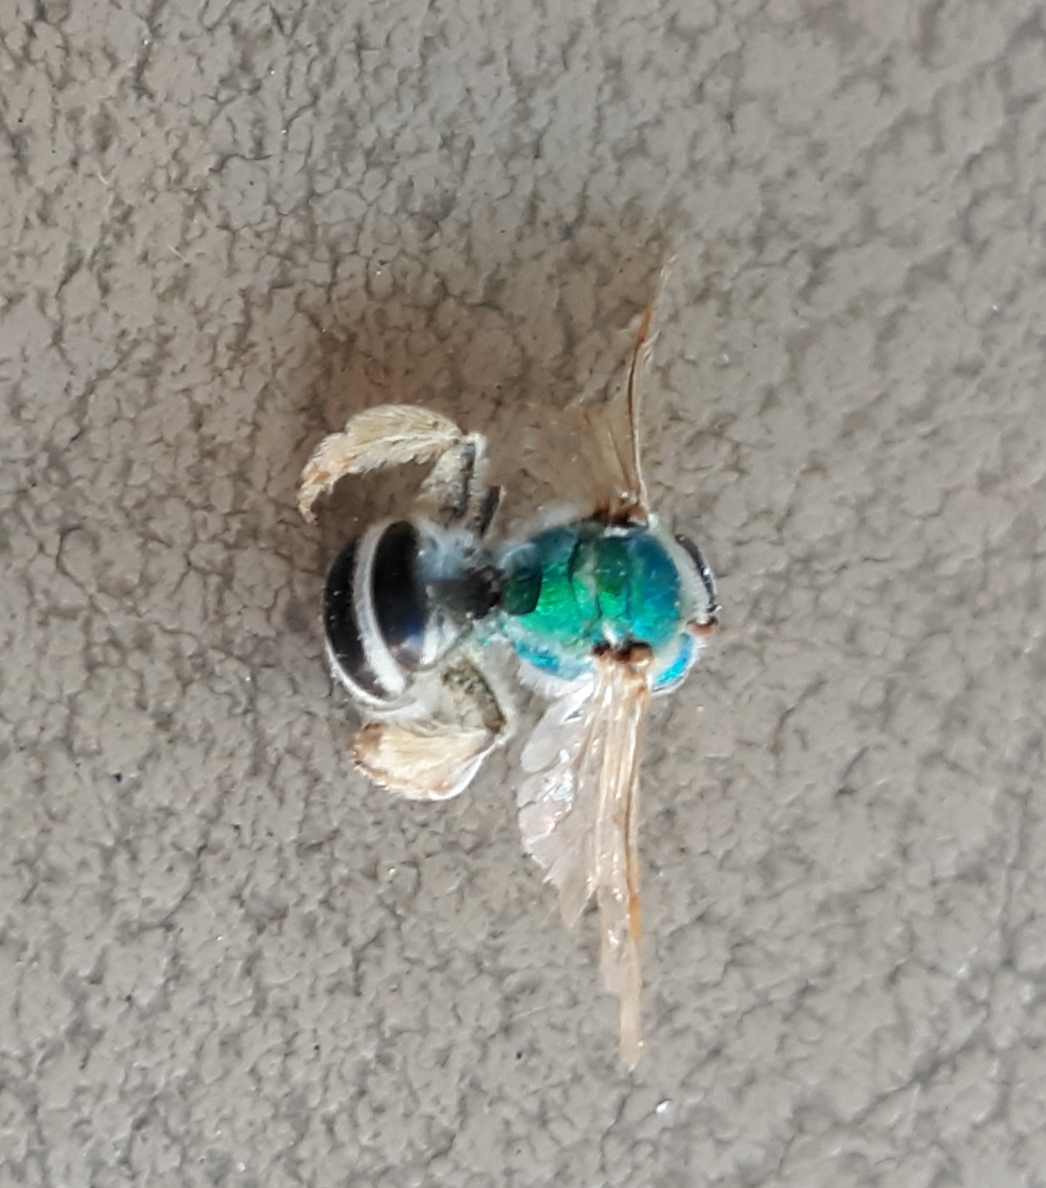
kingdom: Animalia
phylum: Arthropoda
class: Insecta
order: Hymenoptera
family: Halictidae
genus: Agapostemon
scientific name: Agapostemon virescens
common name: Bicolored striped sweat bee
